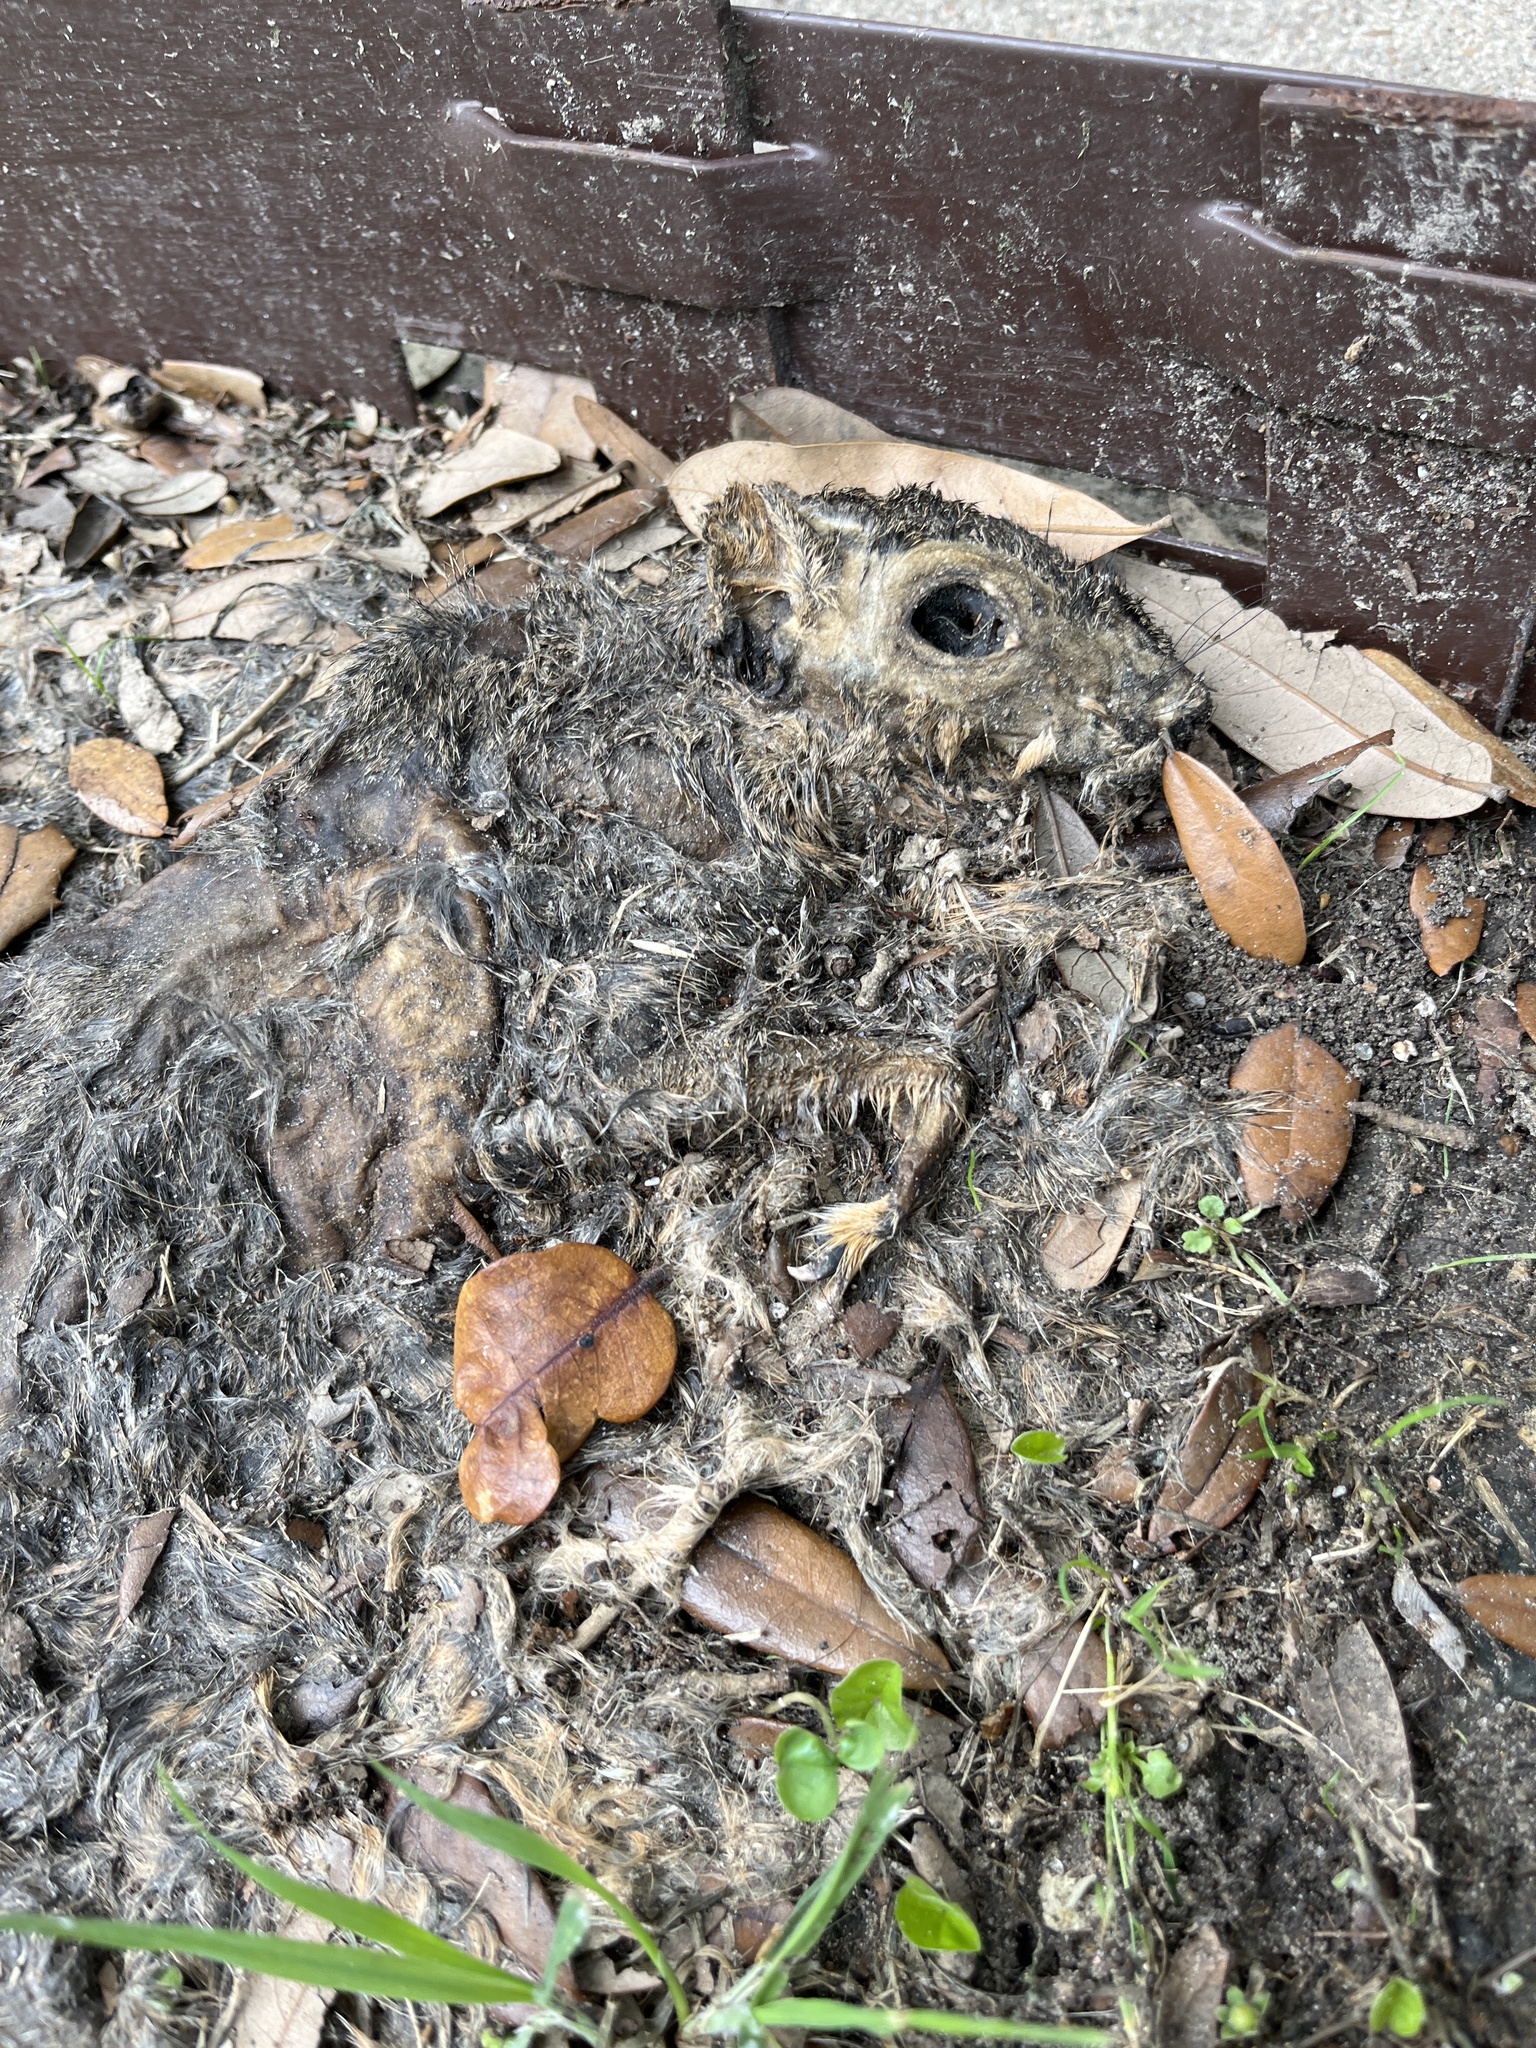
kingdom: Animalia
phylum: Chordata
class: Mammalia
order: Rodentia
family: Sciuridae
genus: Sciurus
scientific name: Sciurus niger
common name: Fox squirrel
